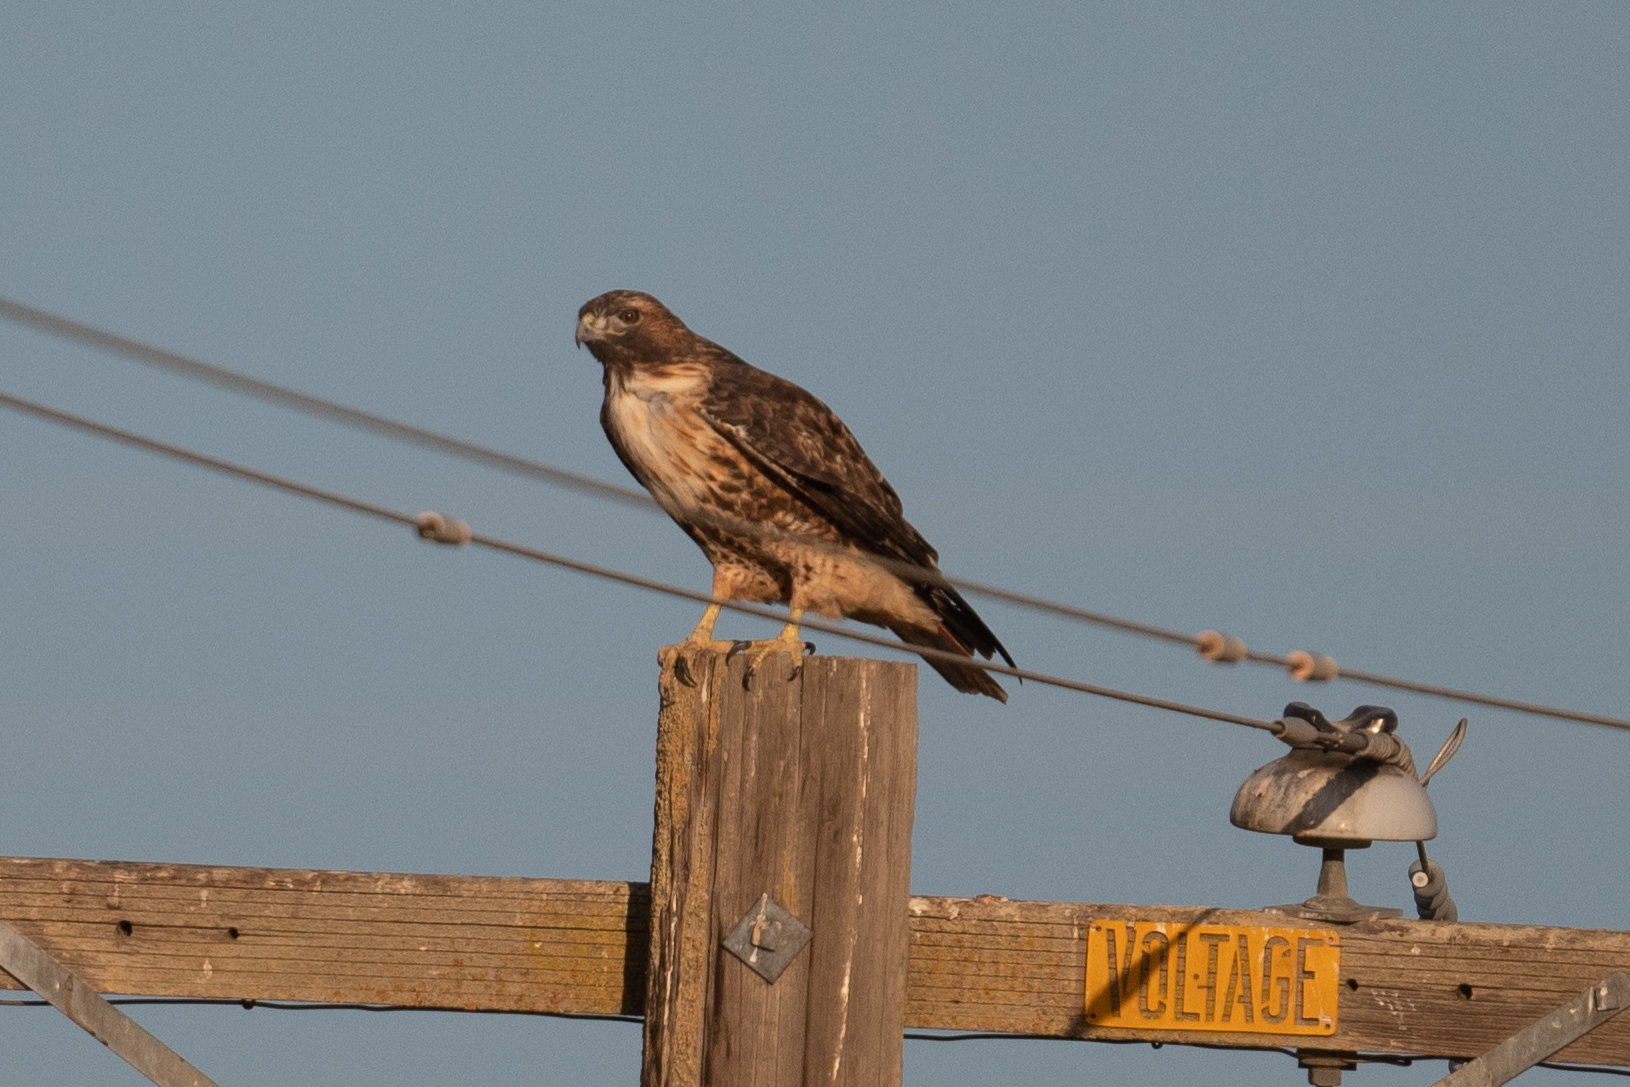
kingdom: Animalia
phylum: Chordata
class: Aves
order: Accipitriformes
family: Accipitridae
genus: Buteo
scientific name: Buteo jamaicensis
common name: Red-tailed hawk
